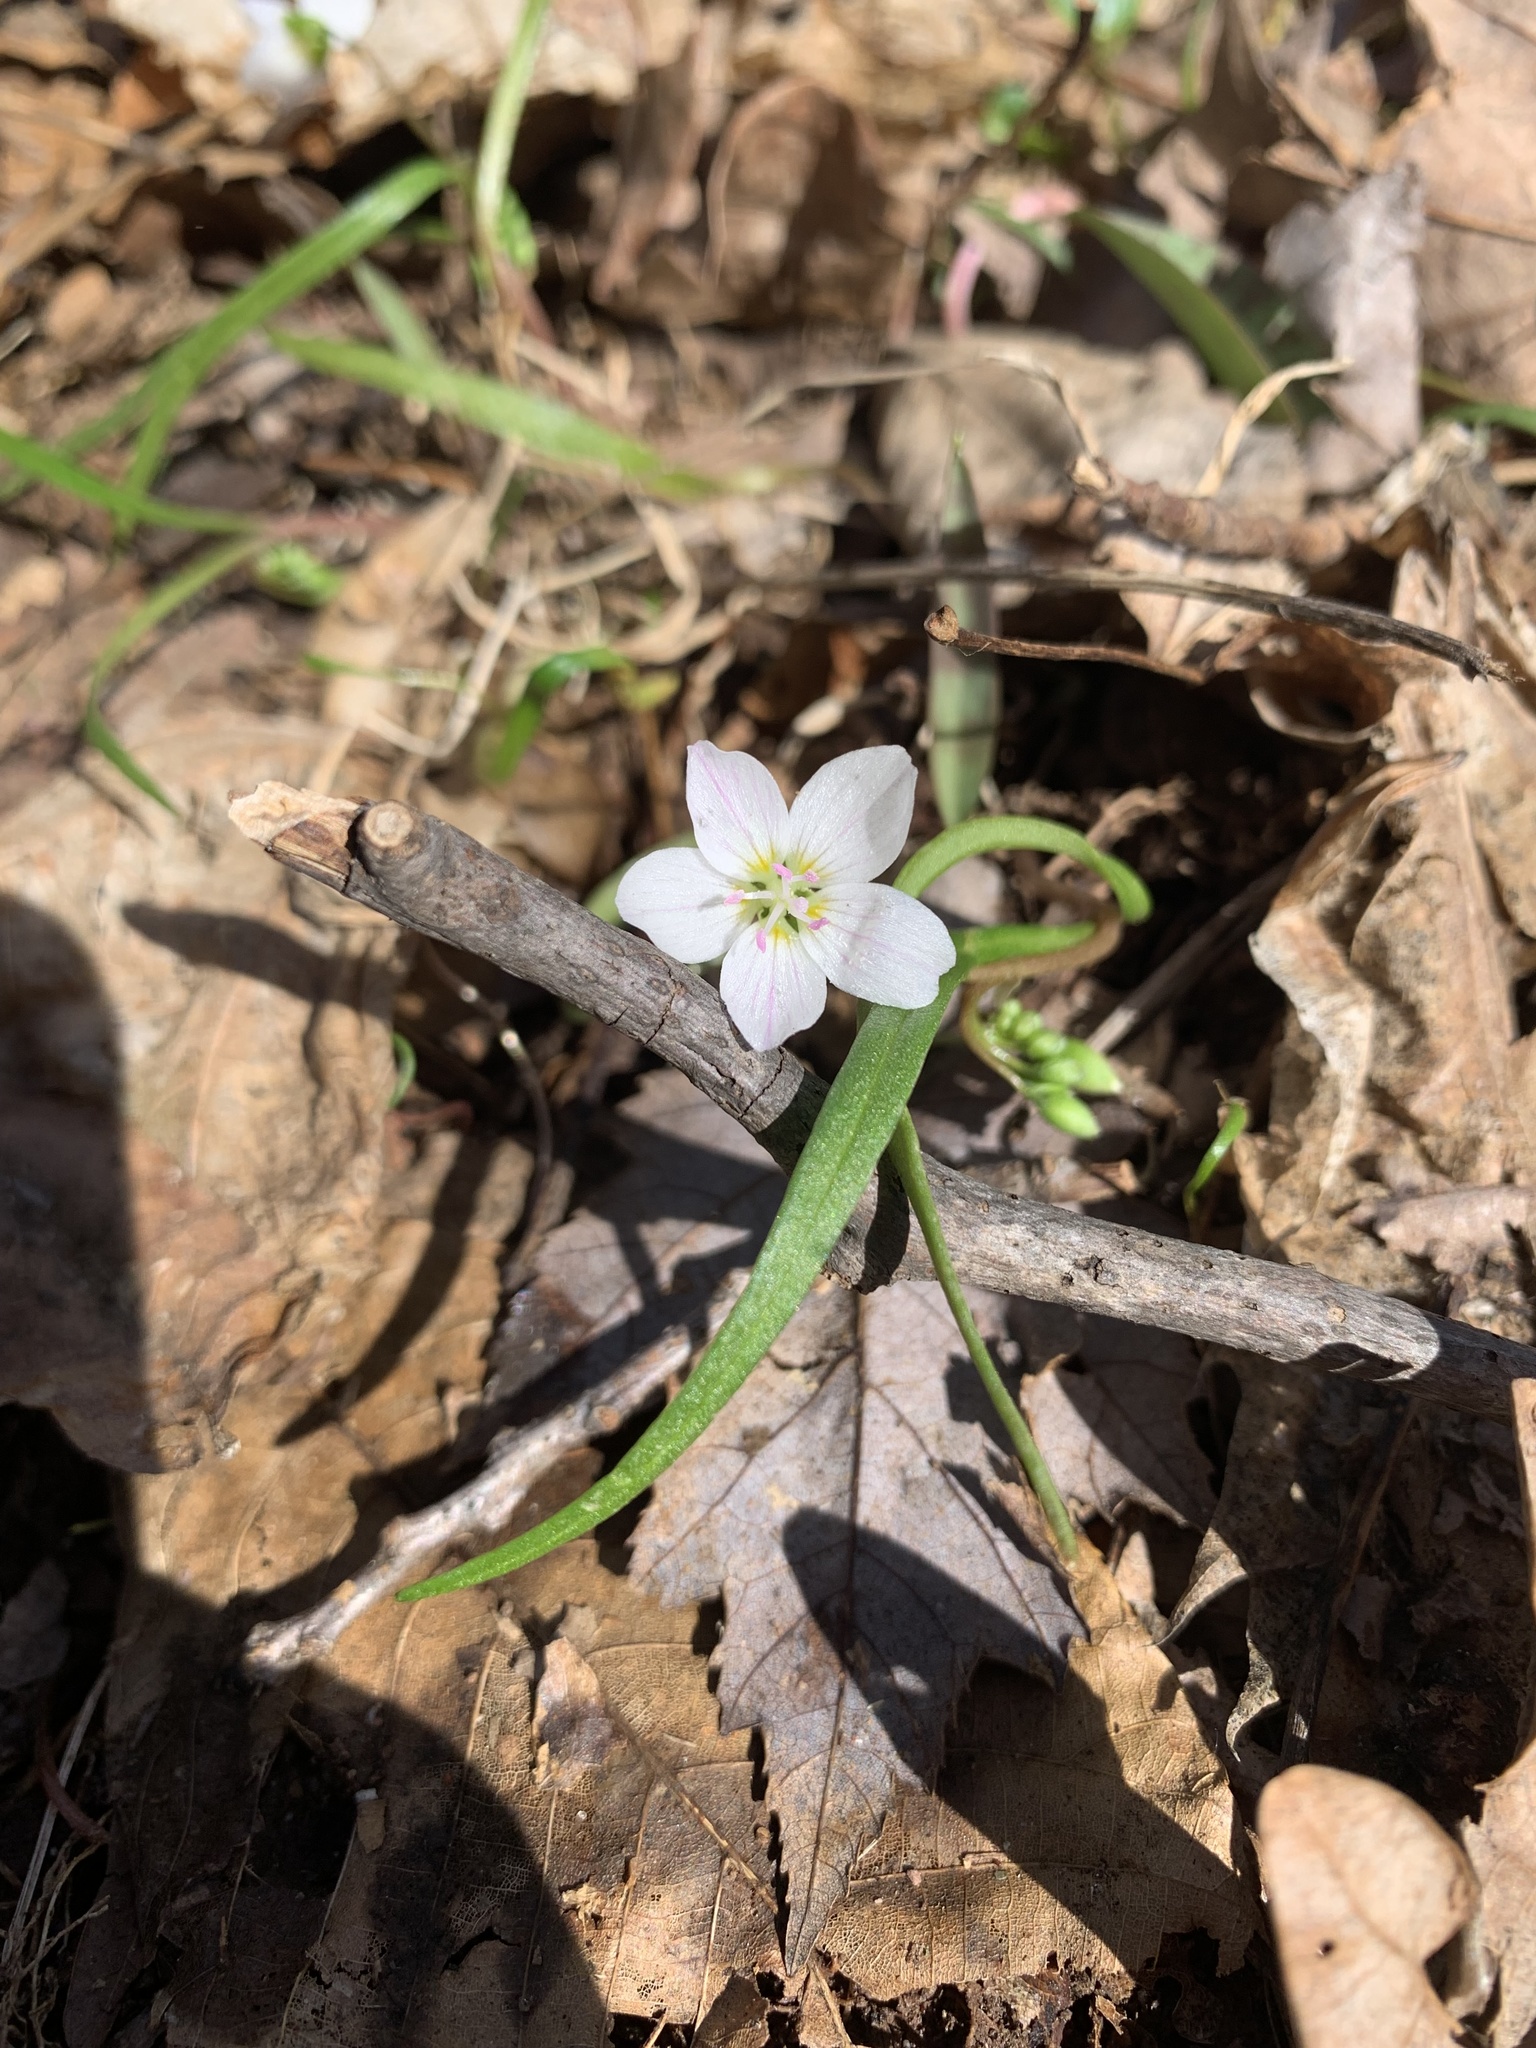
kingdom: Plantae
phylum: Tracheophyta
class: Magnoliopsida
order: Caryophyllales
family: Montiaceae
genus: Claytonia
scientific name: Claytonia virginica
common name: Virginia springbeauty
